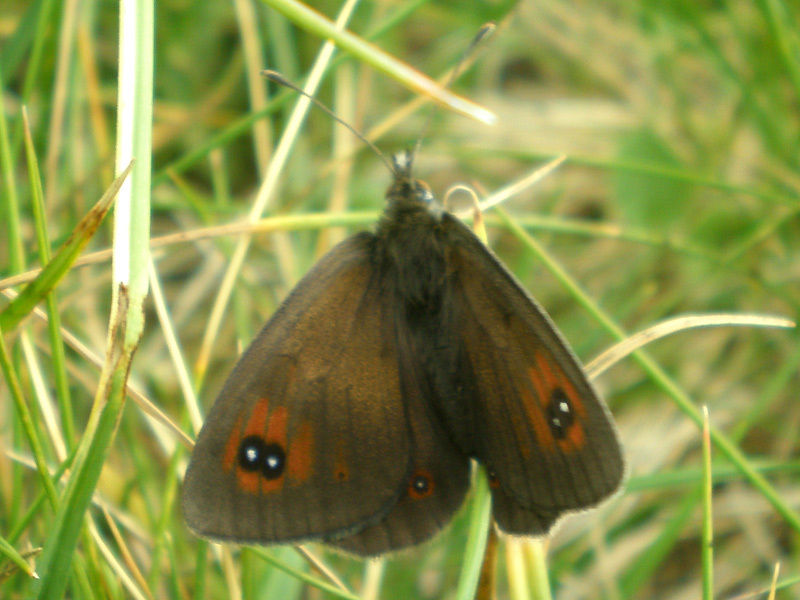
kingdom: Animalia
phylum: Arthropoda
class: Insecta
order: Lepidoptera
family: Nymphalidae
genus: Erebia
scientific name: Erebia cassioides
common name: Common brassy ringlet
